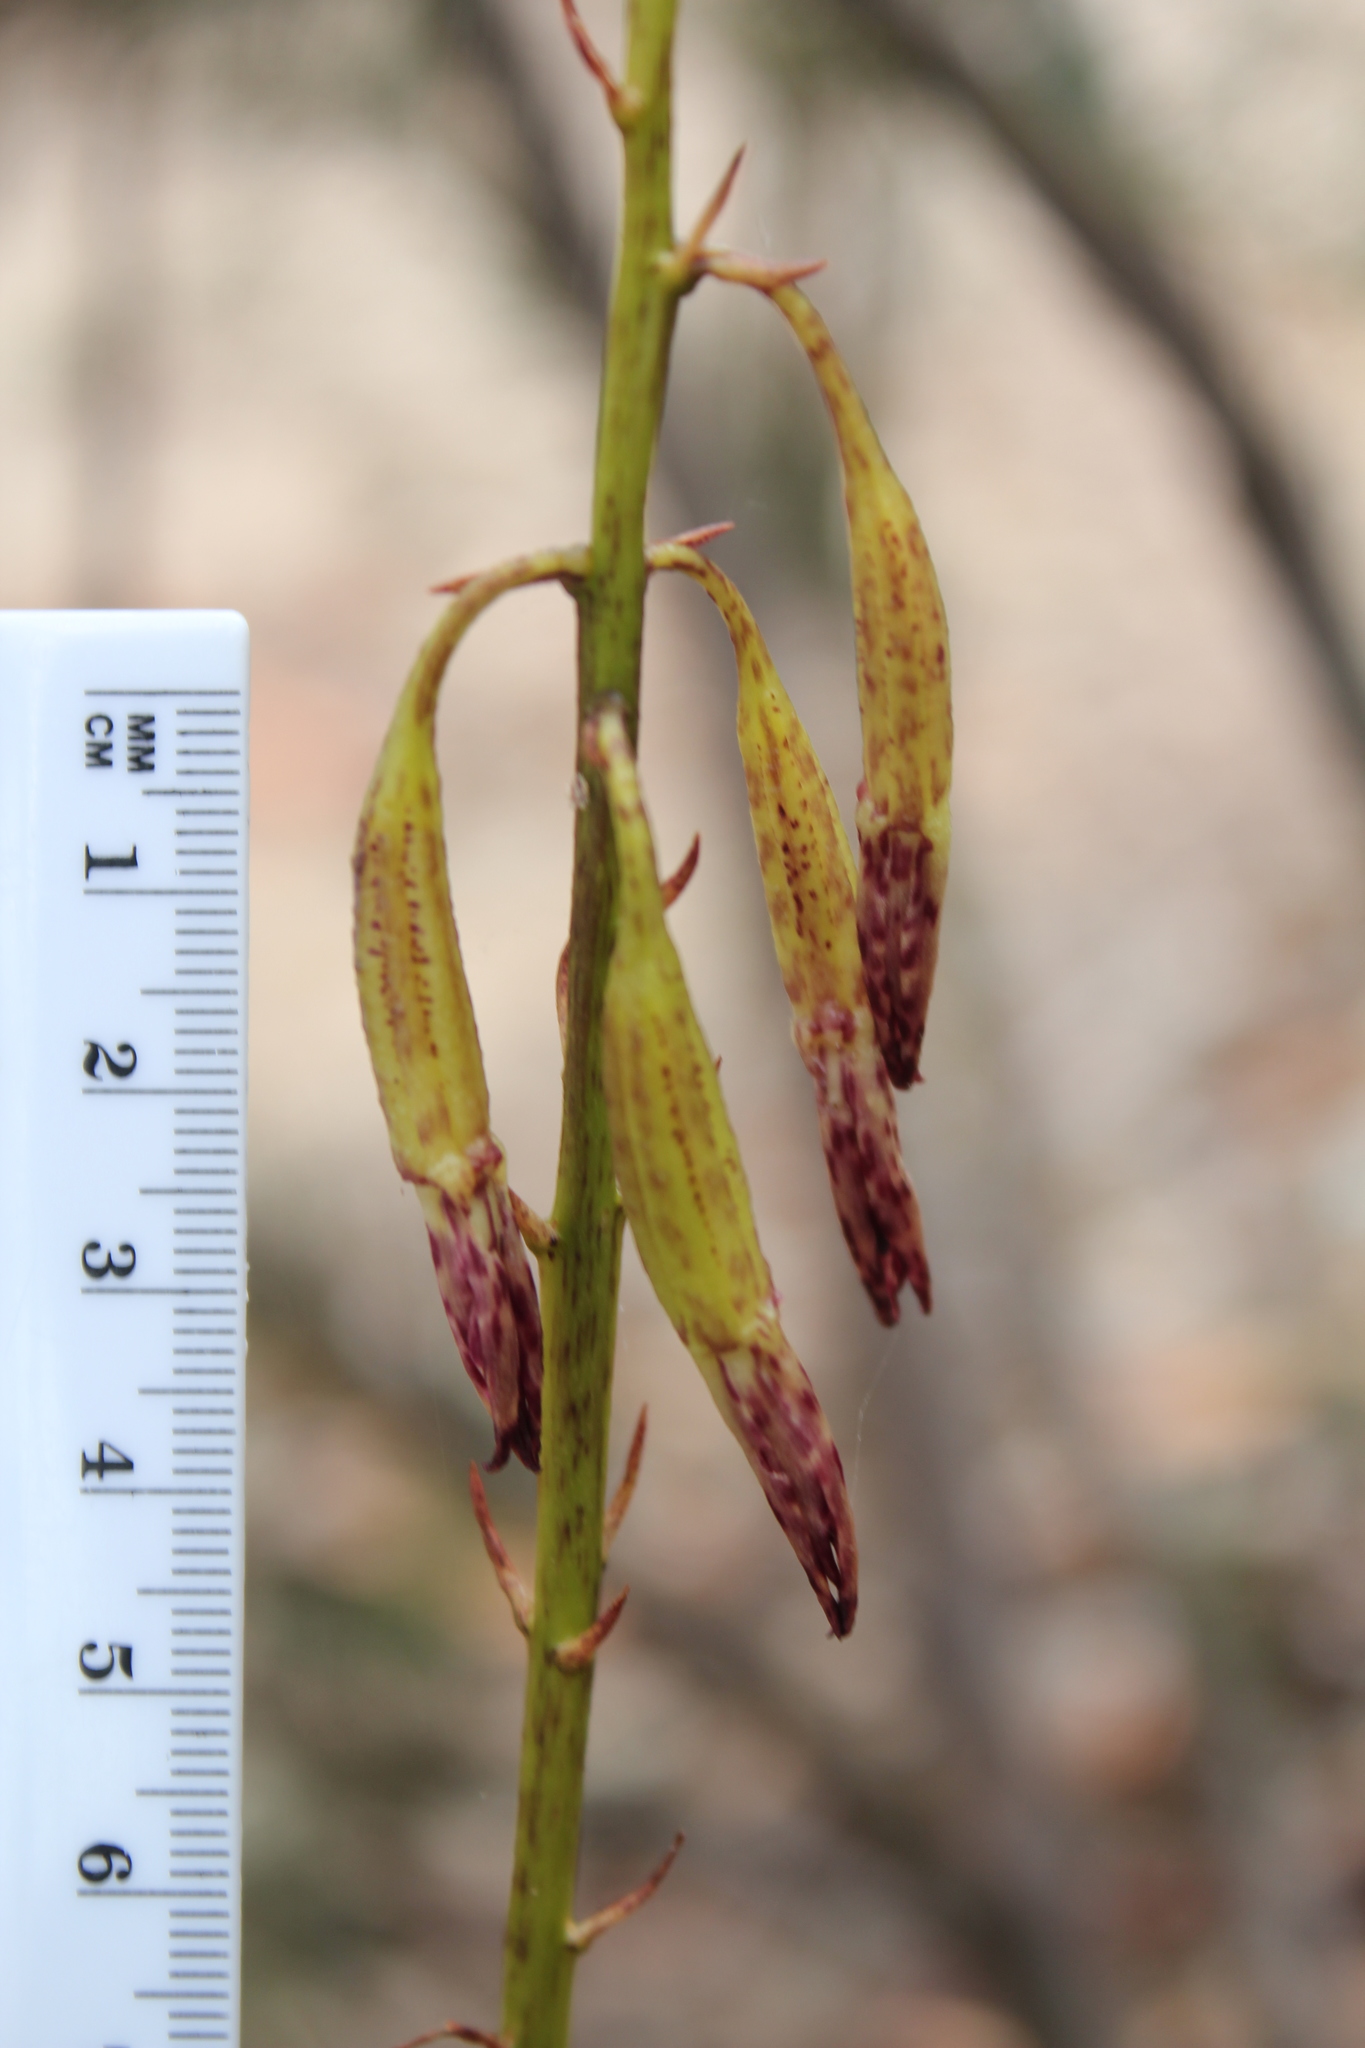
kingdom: Plantae
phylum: Tracheophyta
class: Liliopsida
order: Asparagales
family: Orchidaceae
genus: Dipodium
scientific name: Dipodium variegatum
